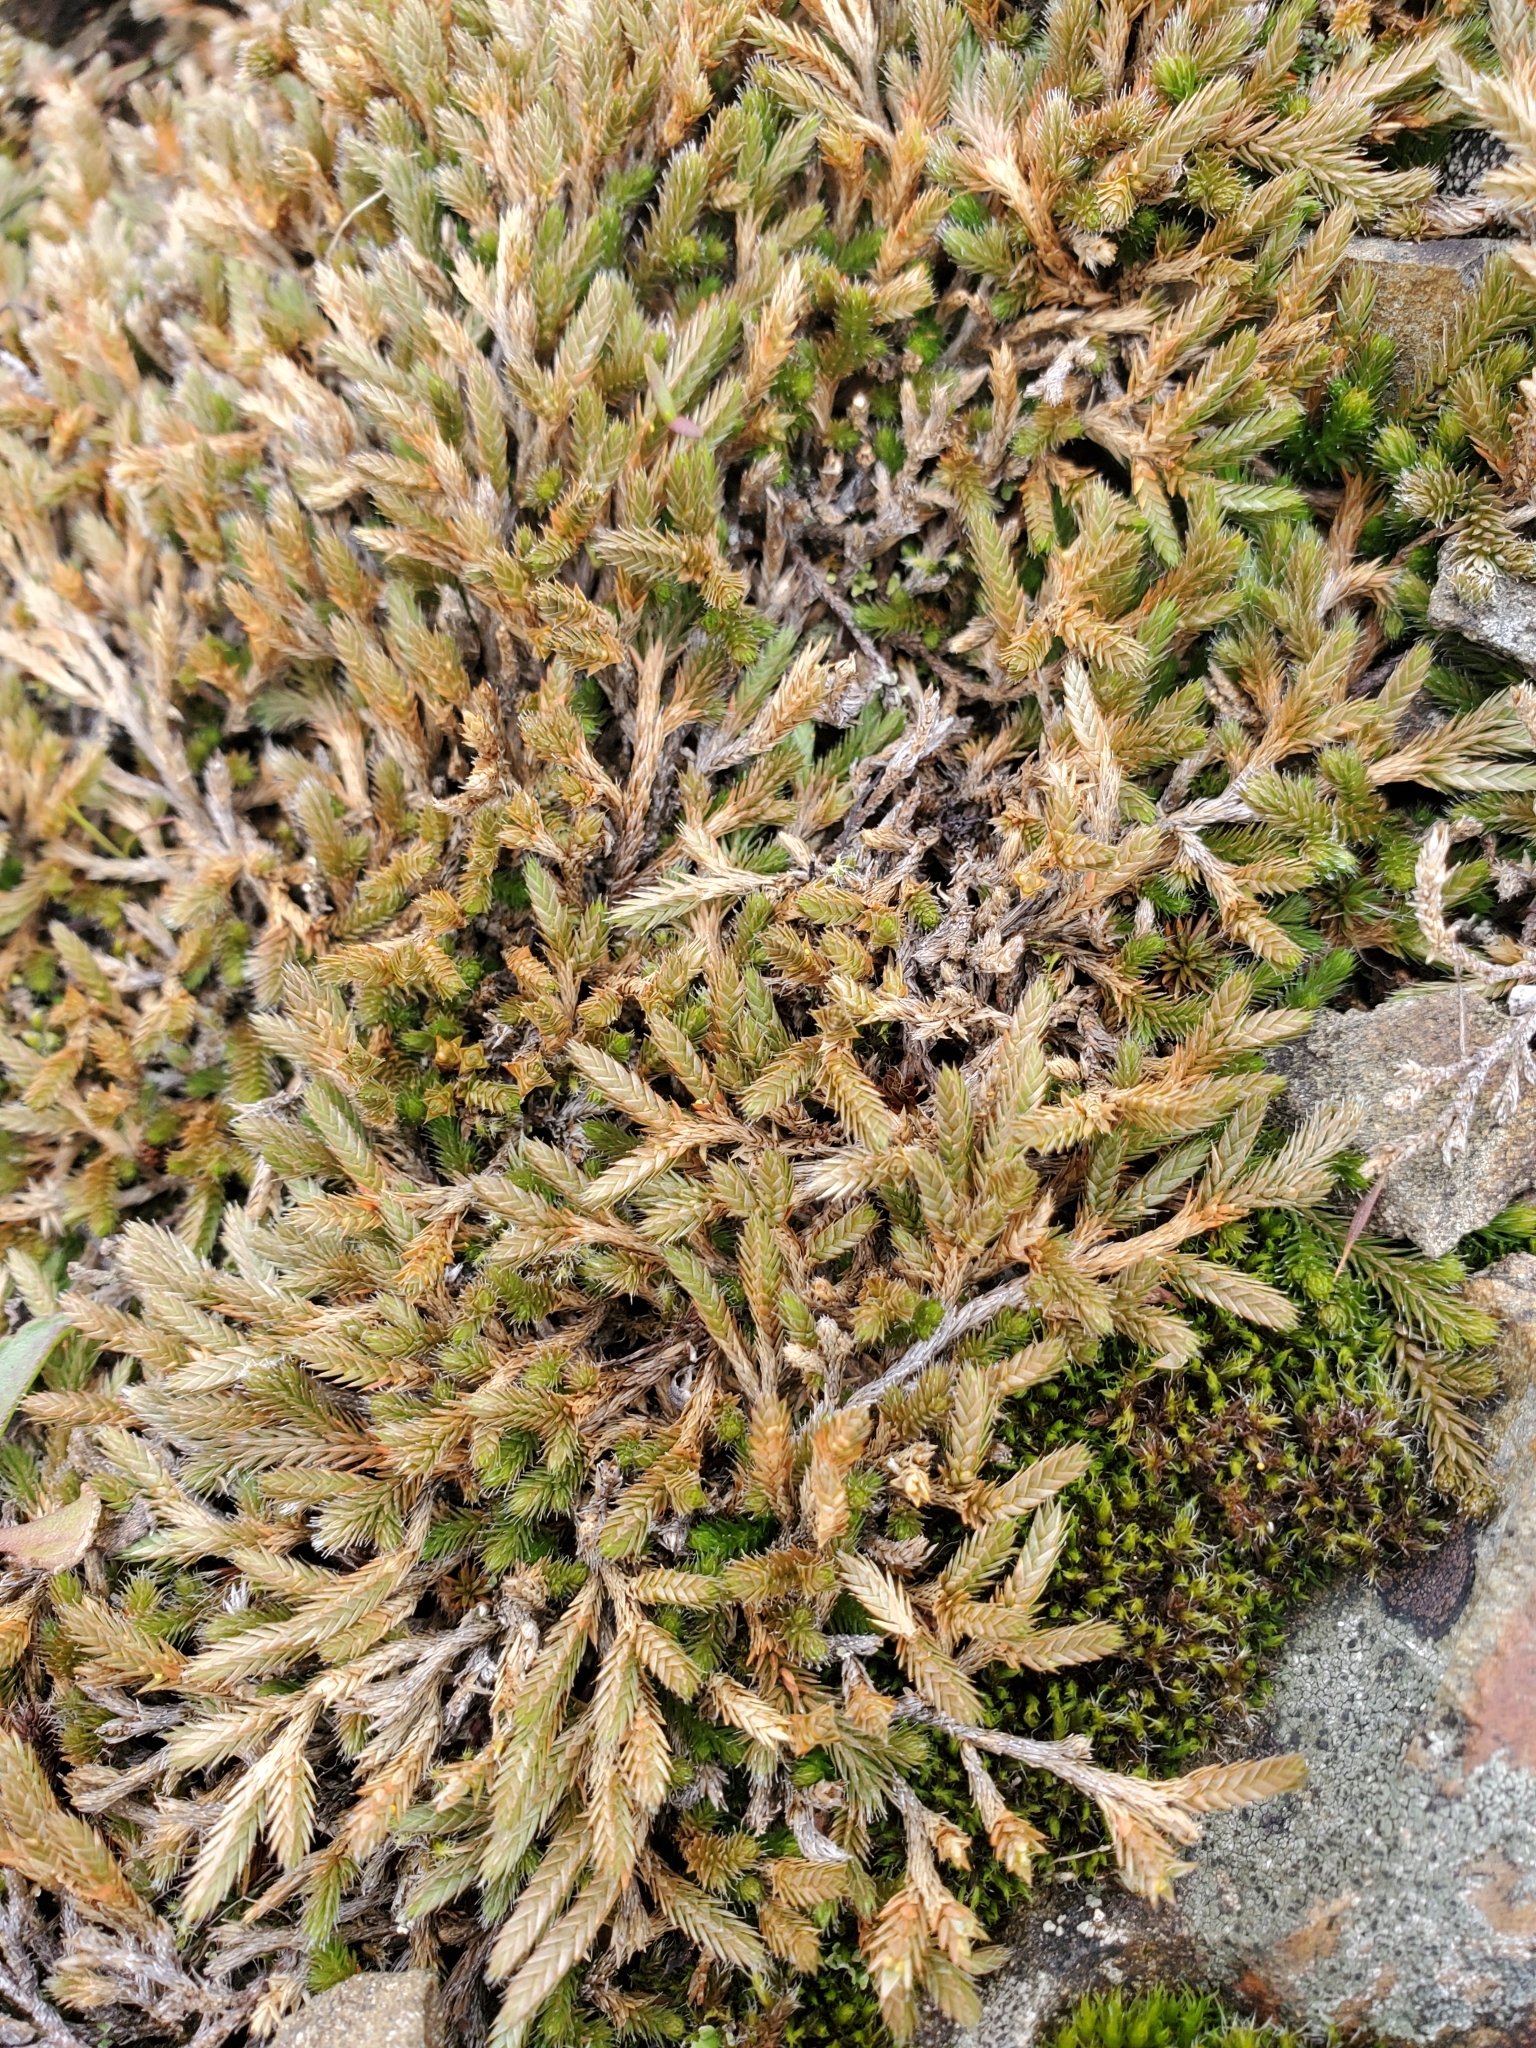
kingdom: Plantae
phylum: Tracheophyta
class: Lycopodiopsida
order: Selaginellales
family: Selaginellaceae
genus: Selaginella
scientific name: Selaginella wallacei
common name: Wallace's selaginella
